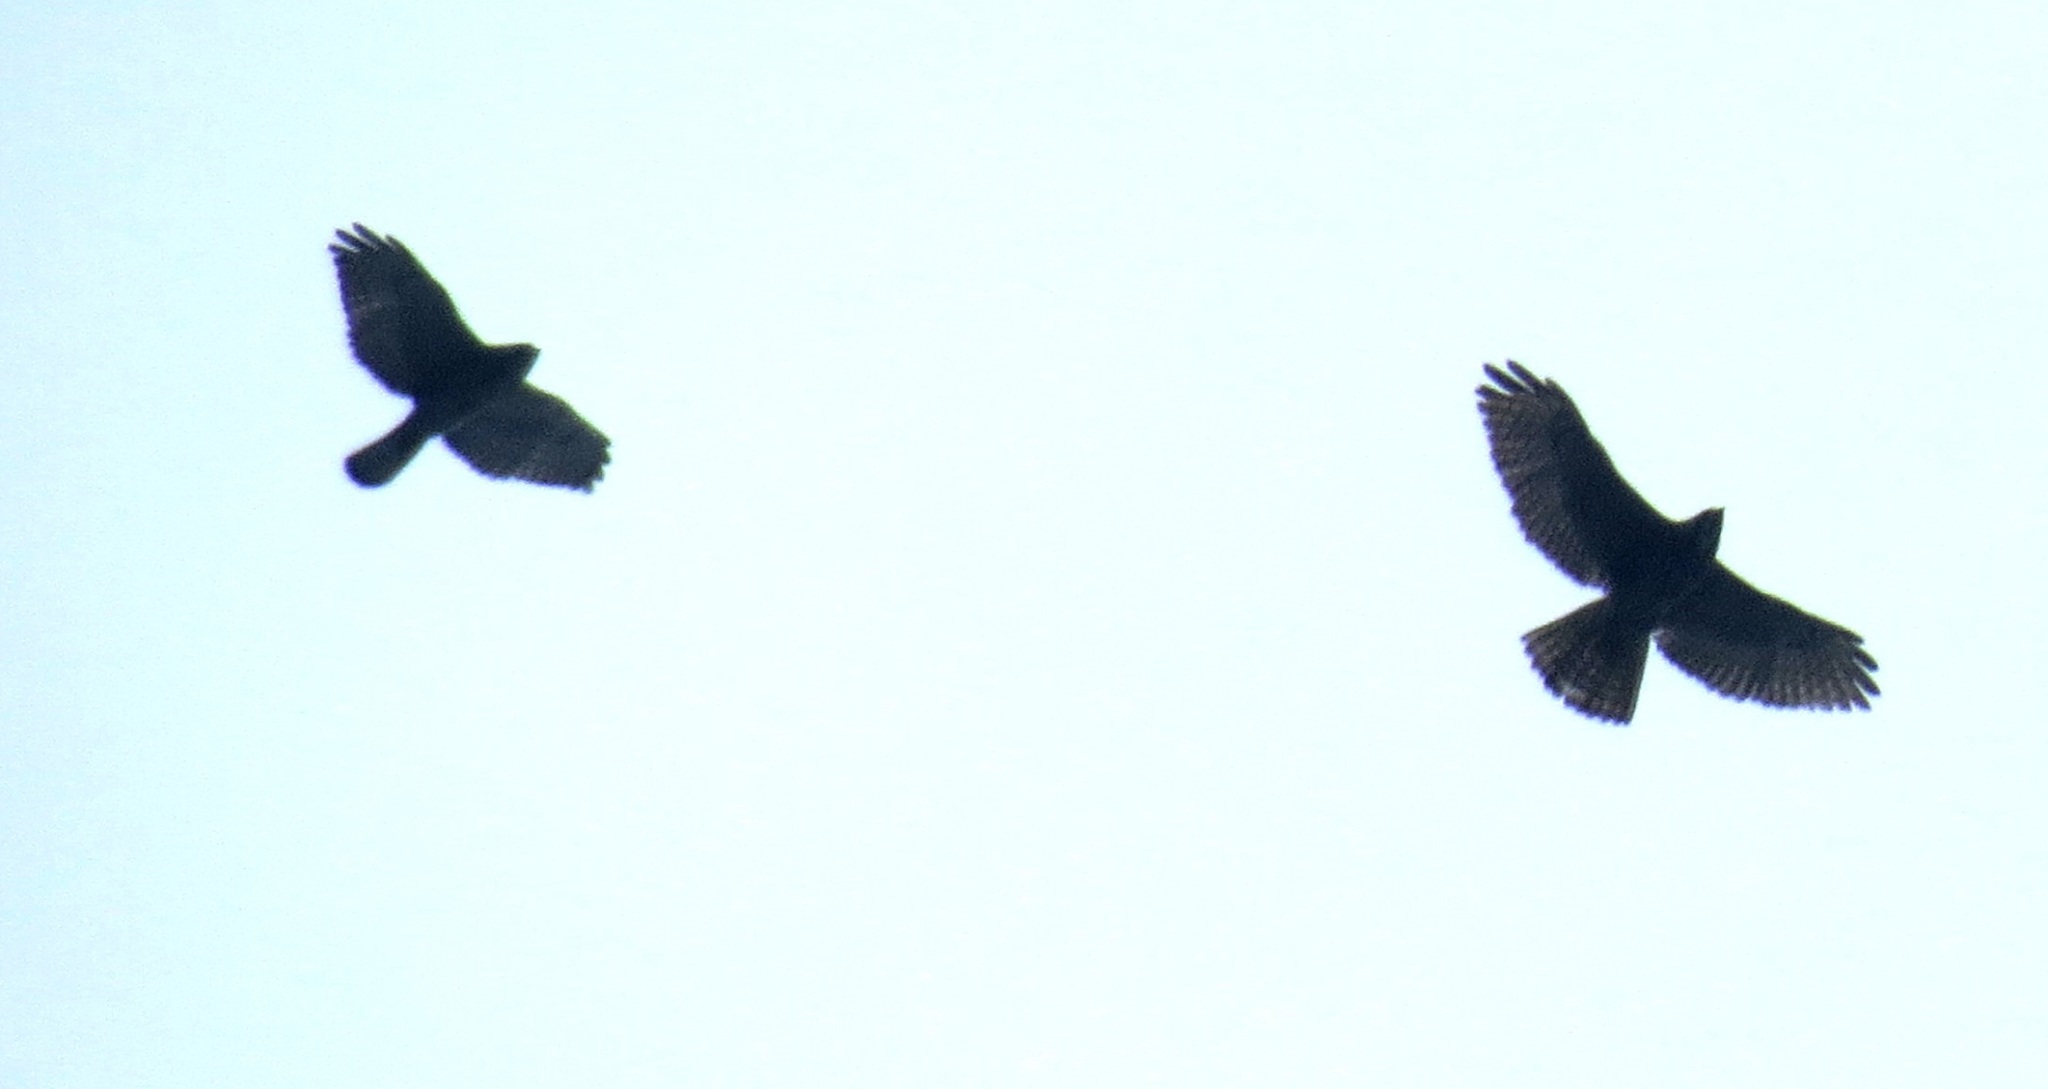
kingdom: Animalia
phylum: Chordata
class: Aves
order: Accipitriformes
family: Accipitridae
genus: Buteo
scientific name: Buteo platypterus
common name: Broad-winged hawk
